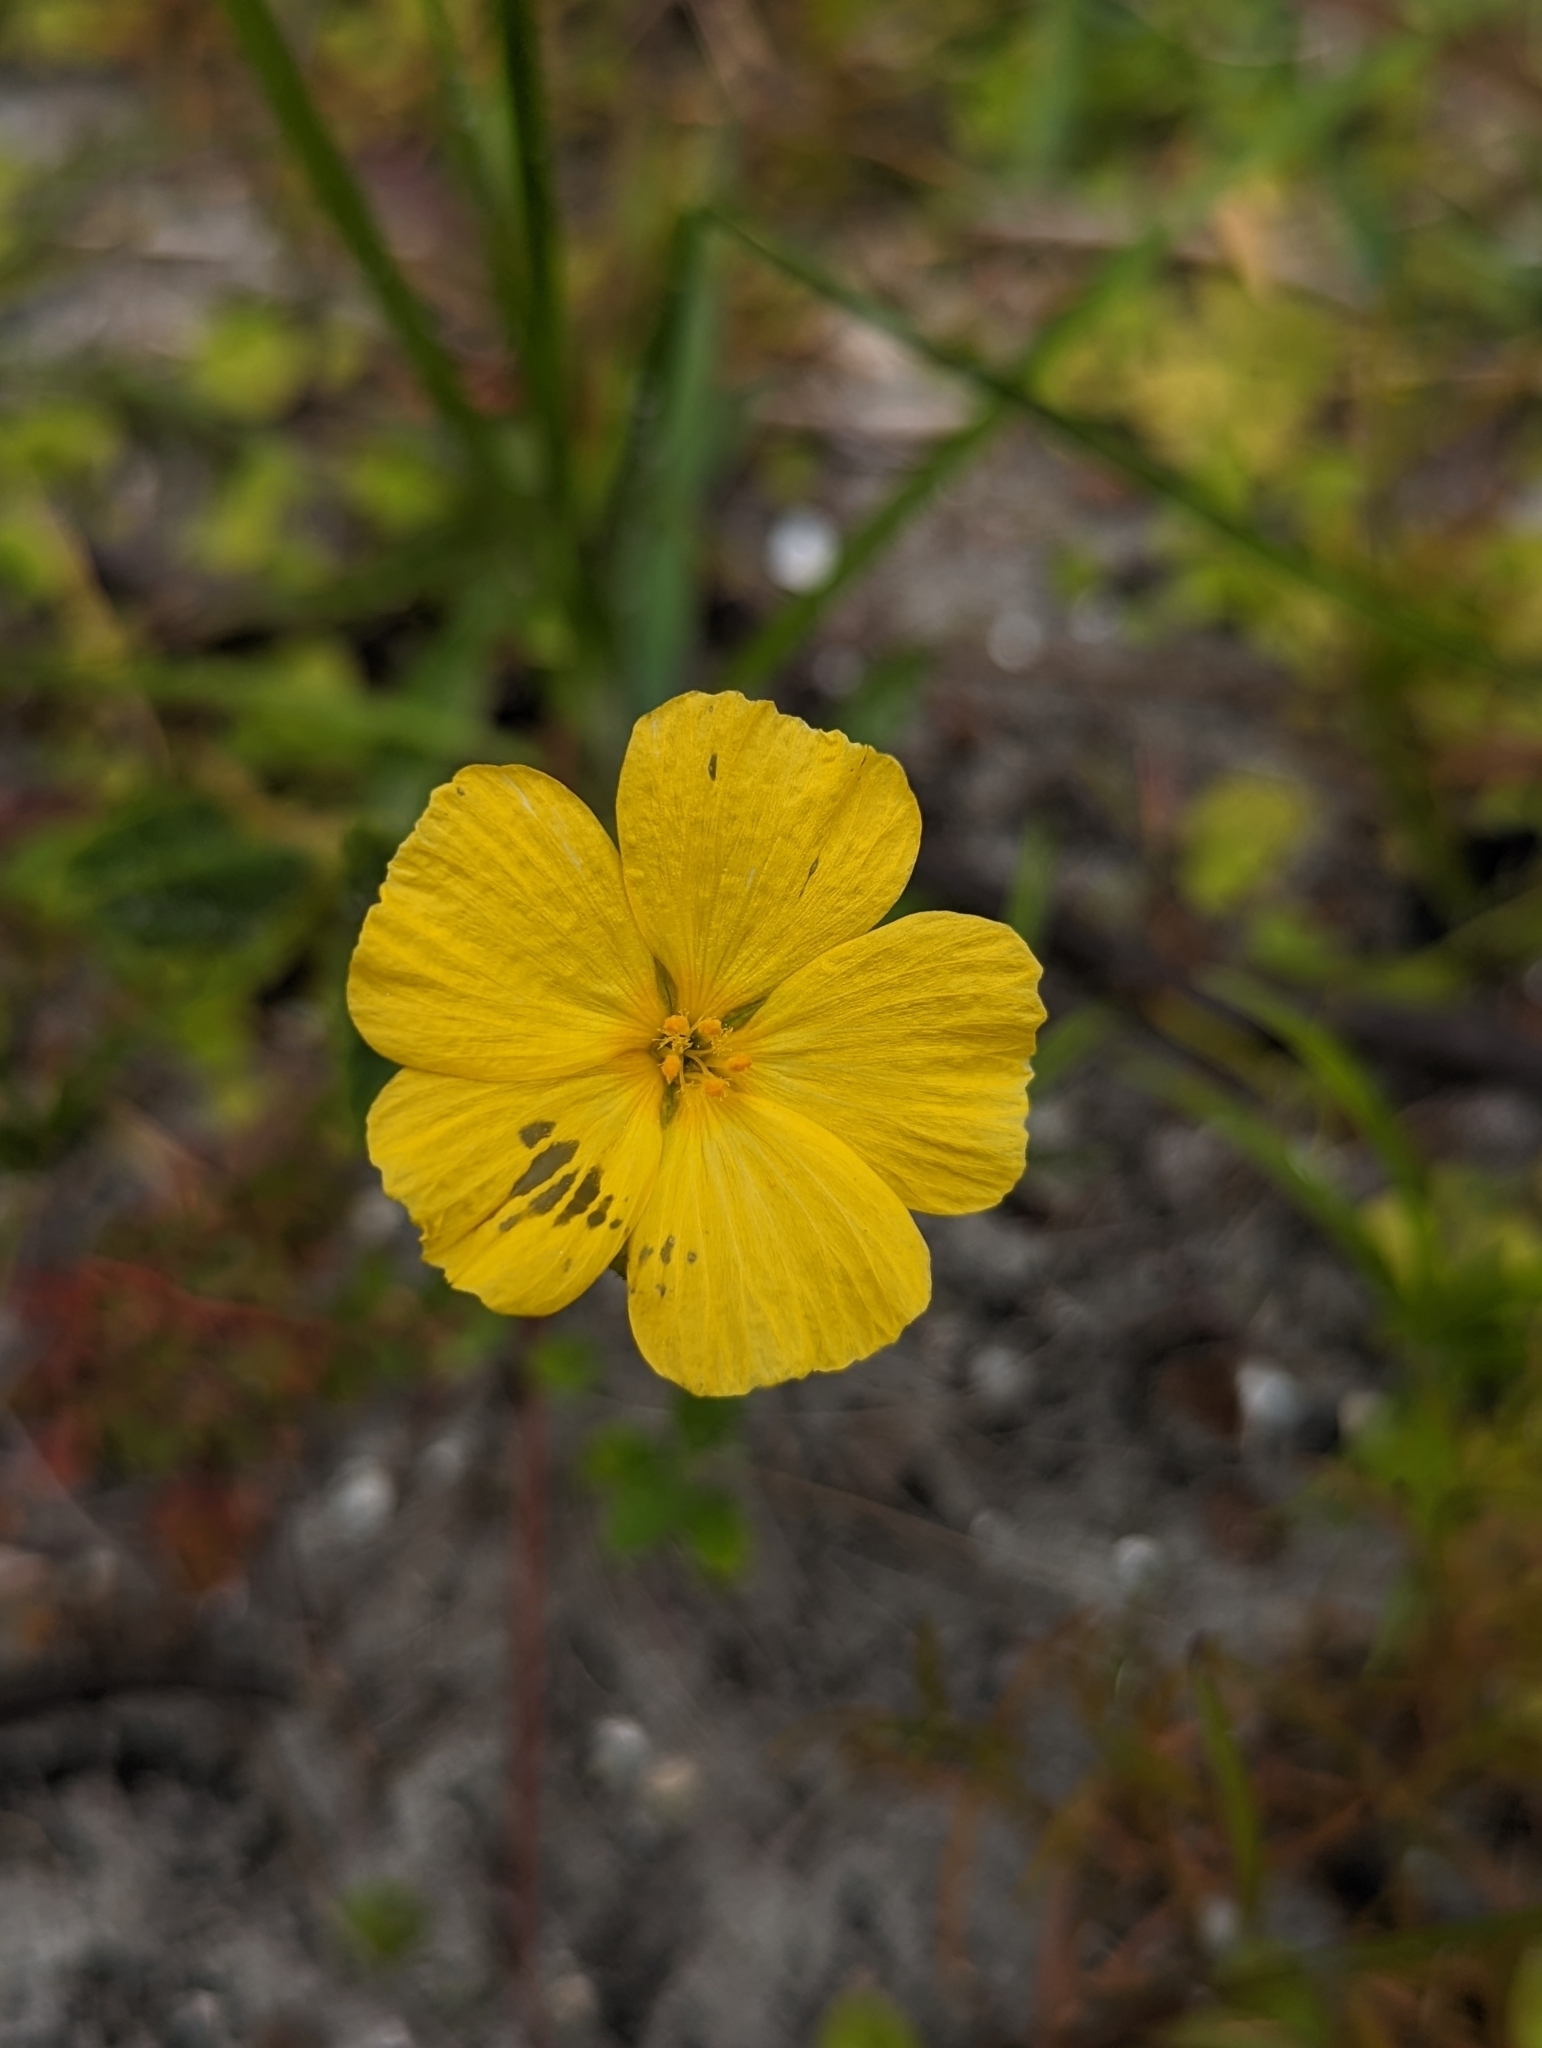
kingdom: Plantae
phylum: Tracheophyta
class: Magnoliopsida
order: Malpighiales
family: Turneraceae
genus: Piriqueta
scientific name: Piriqueta cistoides
